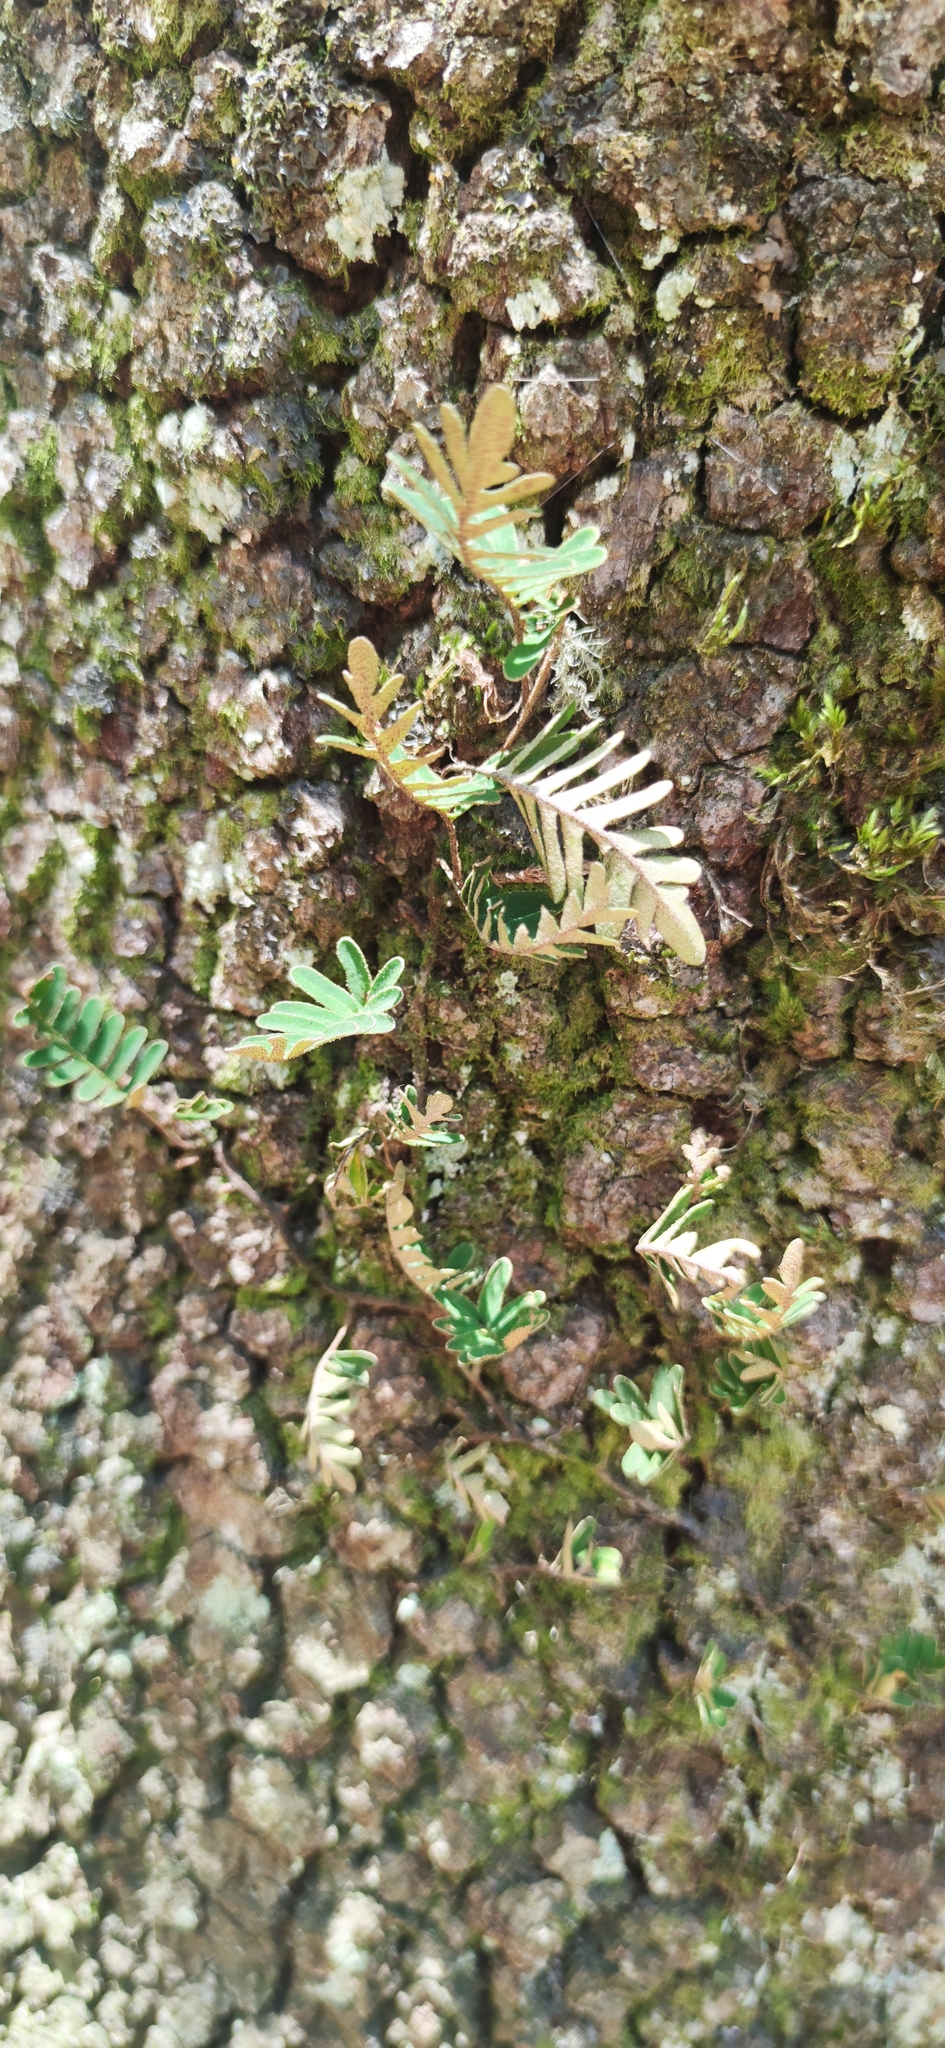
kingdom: Plantae
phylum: Tracheophyta
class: Polypodiopsida
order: Polypodiales
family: Polypodiaceae
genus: Pleopeltis
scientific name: Pleopeltis michauxiana
